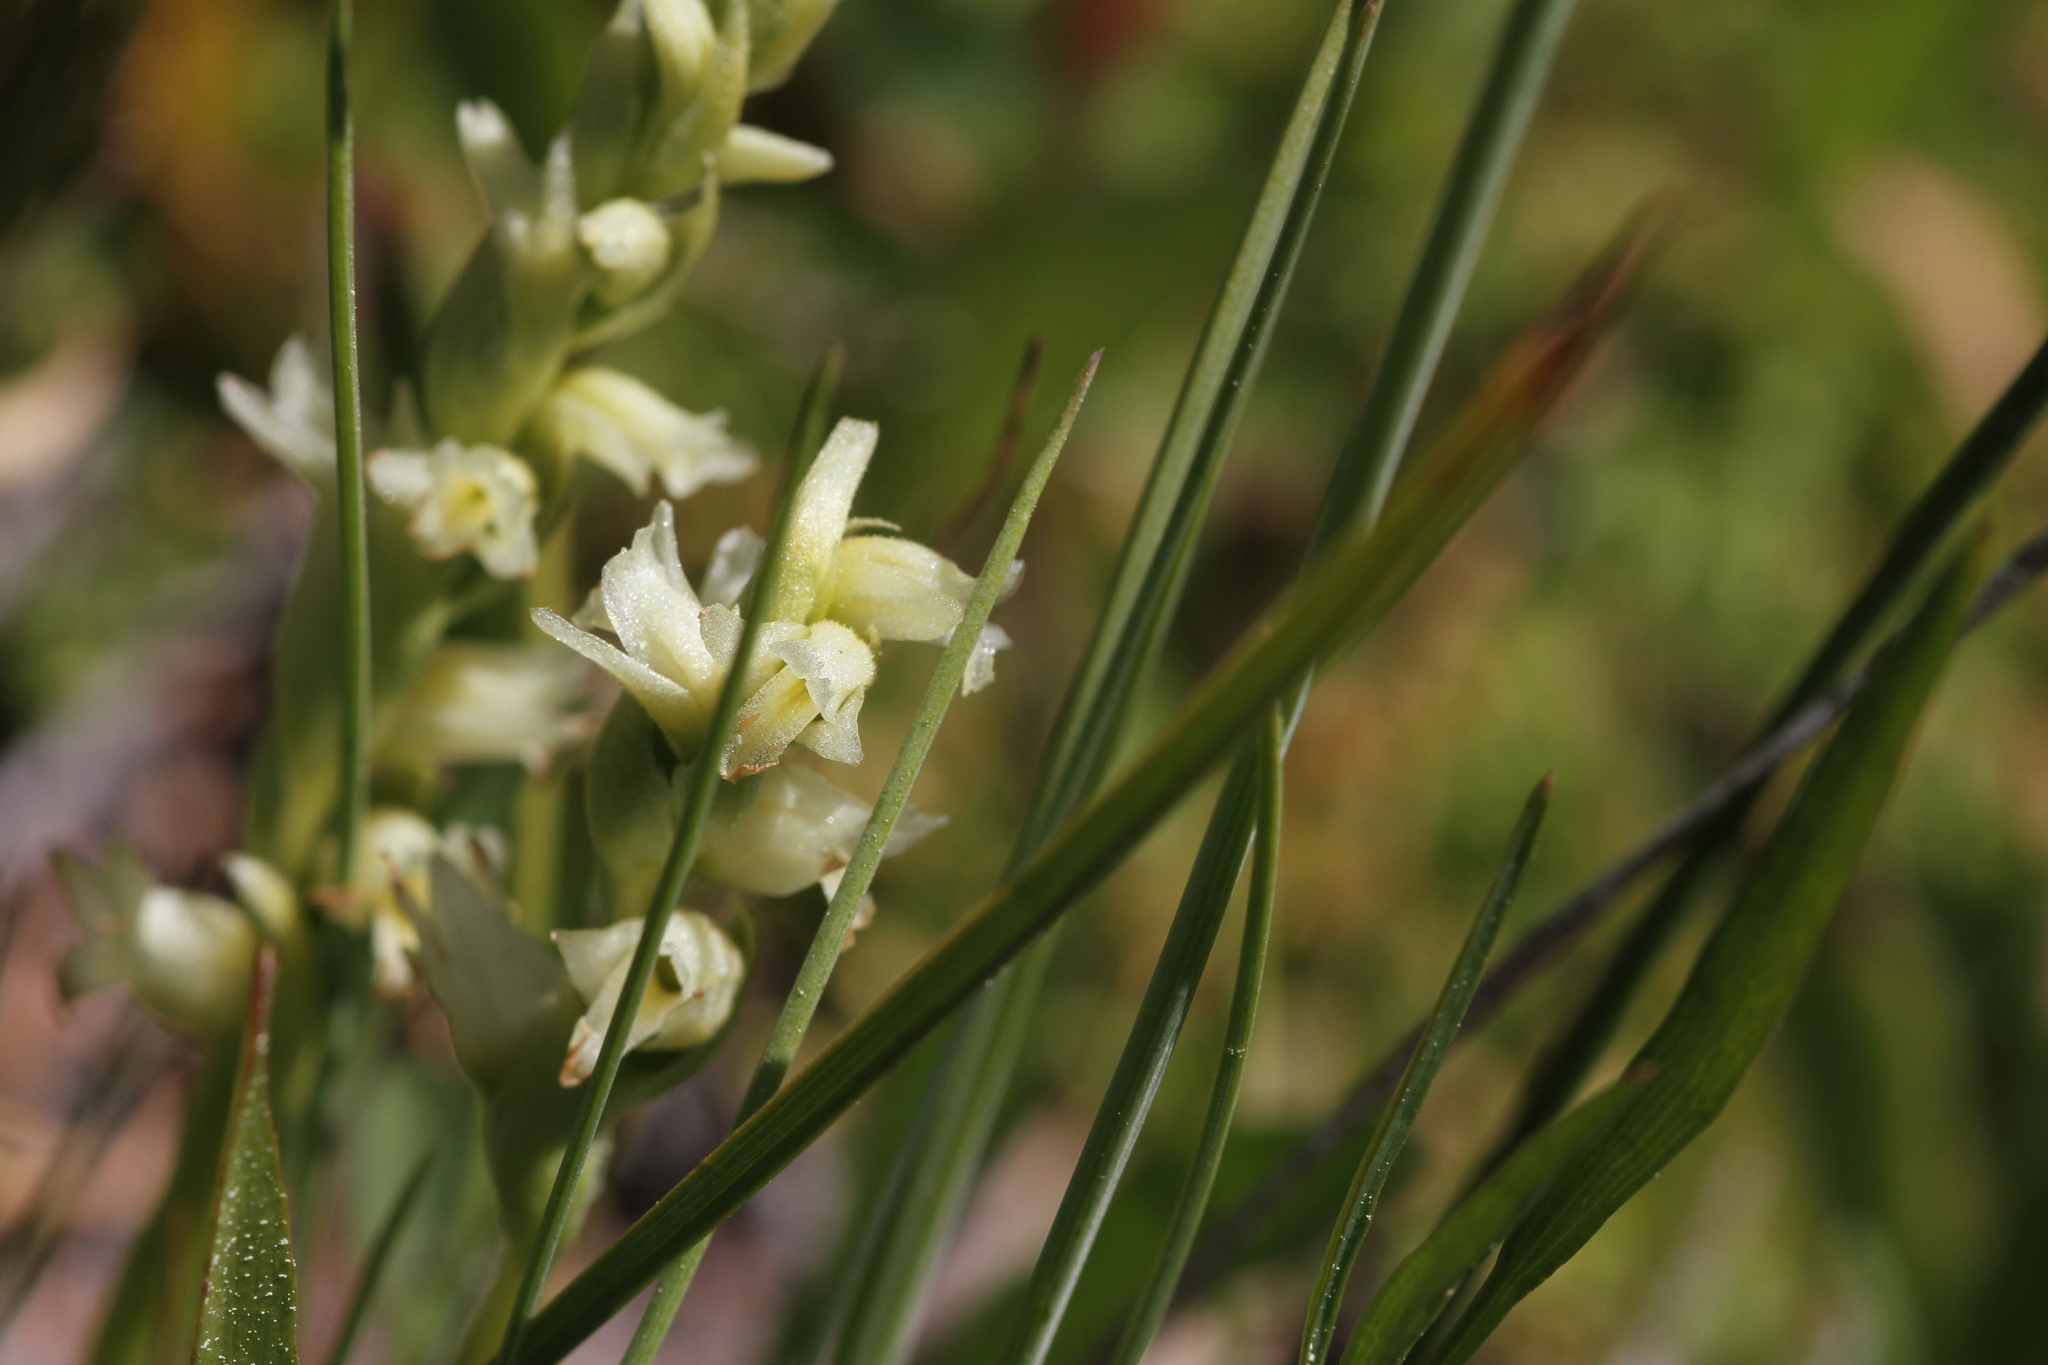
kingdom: Plantae
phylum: Tracheophyta
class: Liliopsida
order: Asparagales
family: Orchidaceae
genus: Spiranthes
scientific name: Spiranthes stellata
